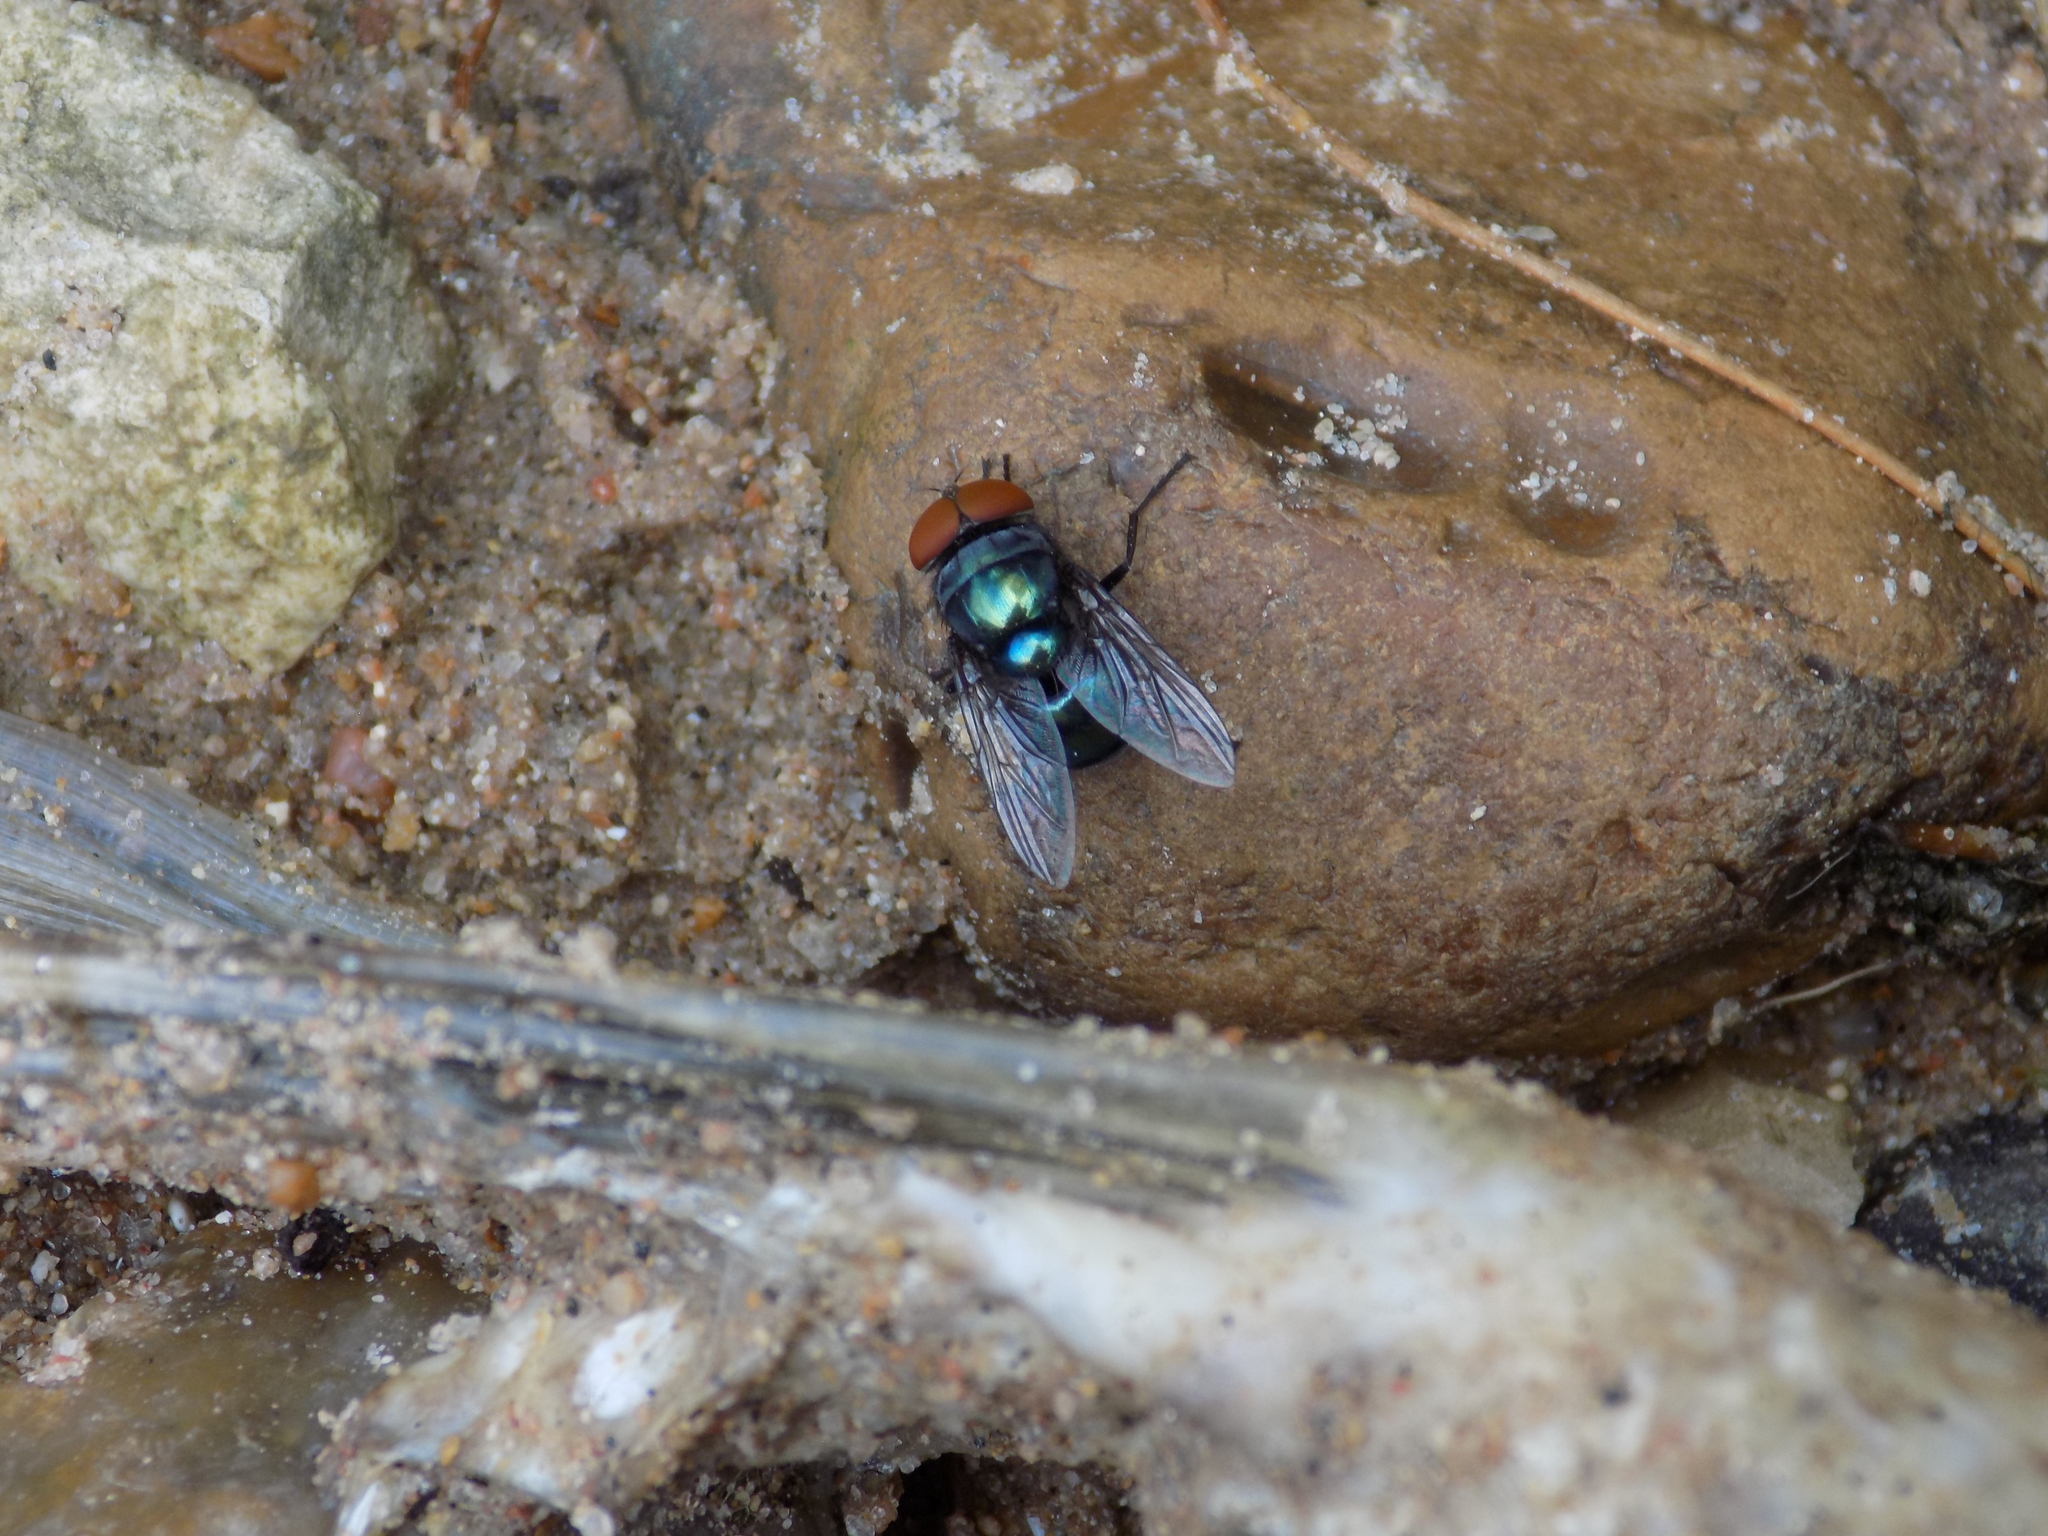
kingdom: Animalia
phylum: Arthropoda
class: Insecta
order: Diptera
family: Calliphoridae
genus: Chrysomya
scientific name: Chrysomya megacephala
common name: Blow fly
